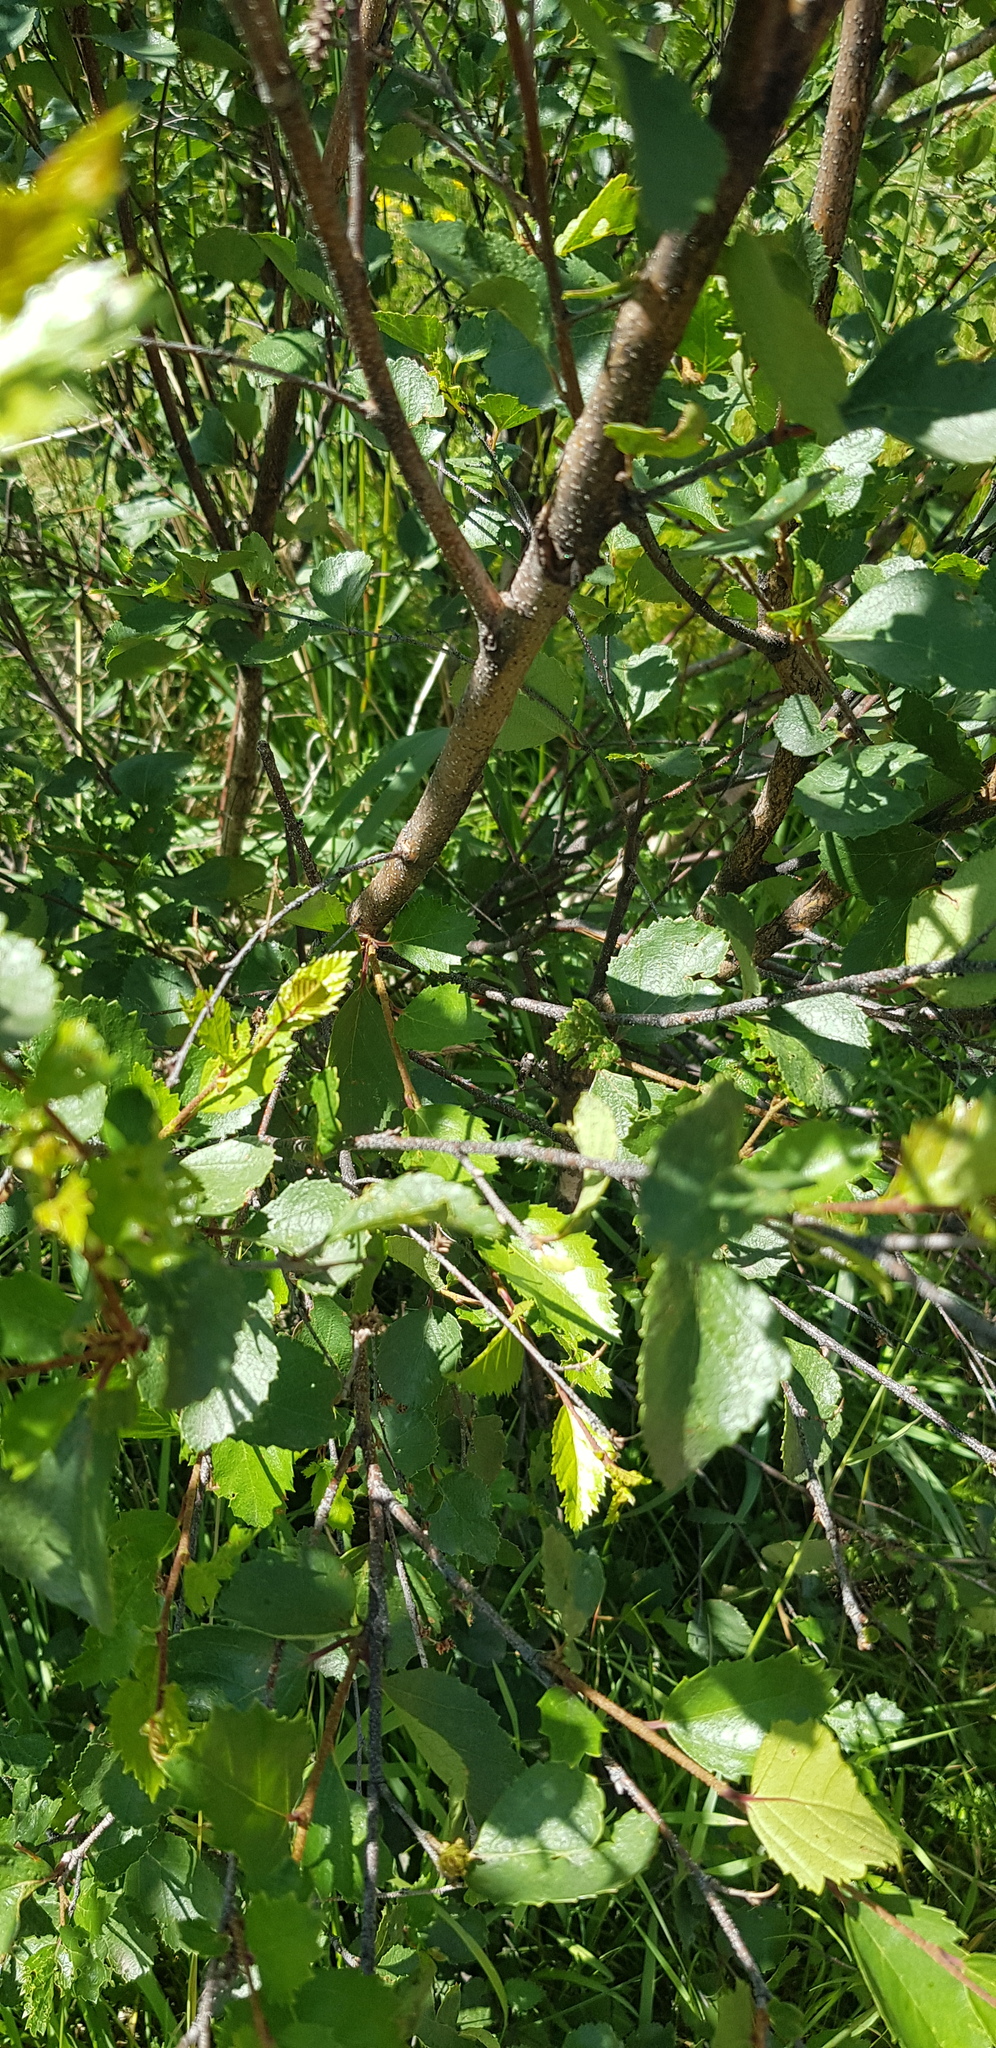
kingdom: Plantae
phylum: Tracheophyta
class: Magnoliopsida
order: Fagales
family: Betulaceae
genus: Betula
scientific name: Betula fruticosa
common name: Japanese bog birch
